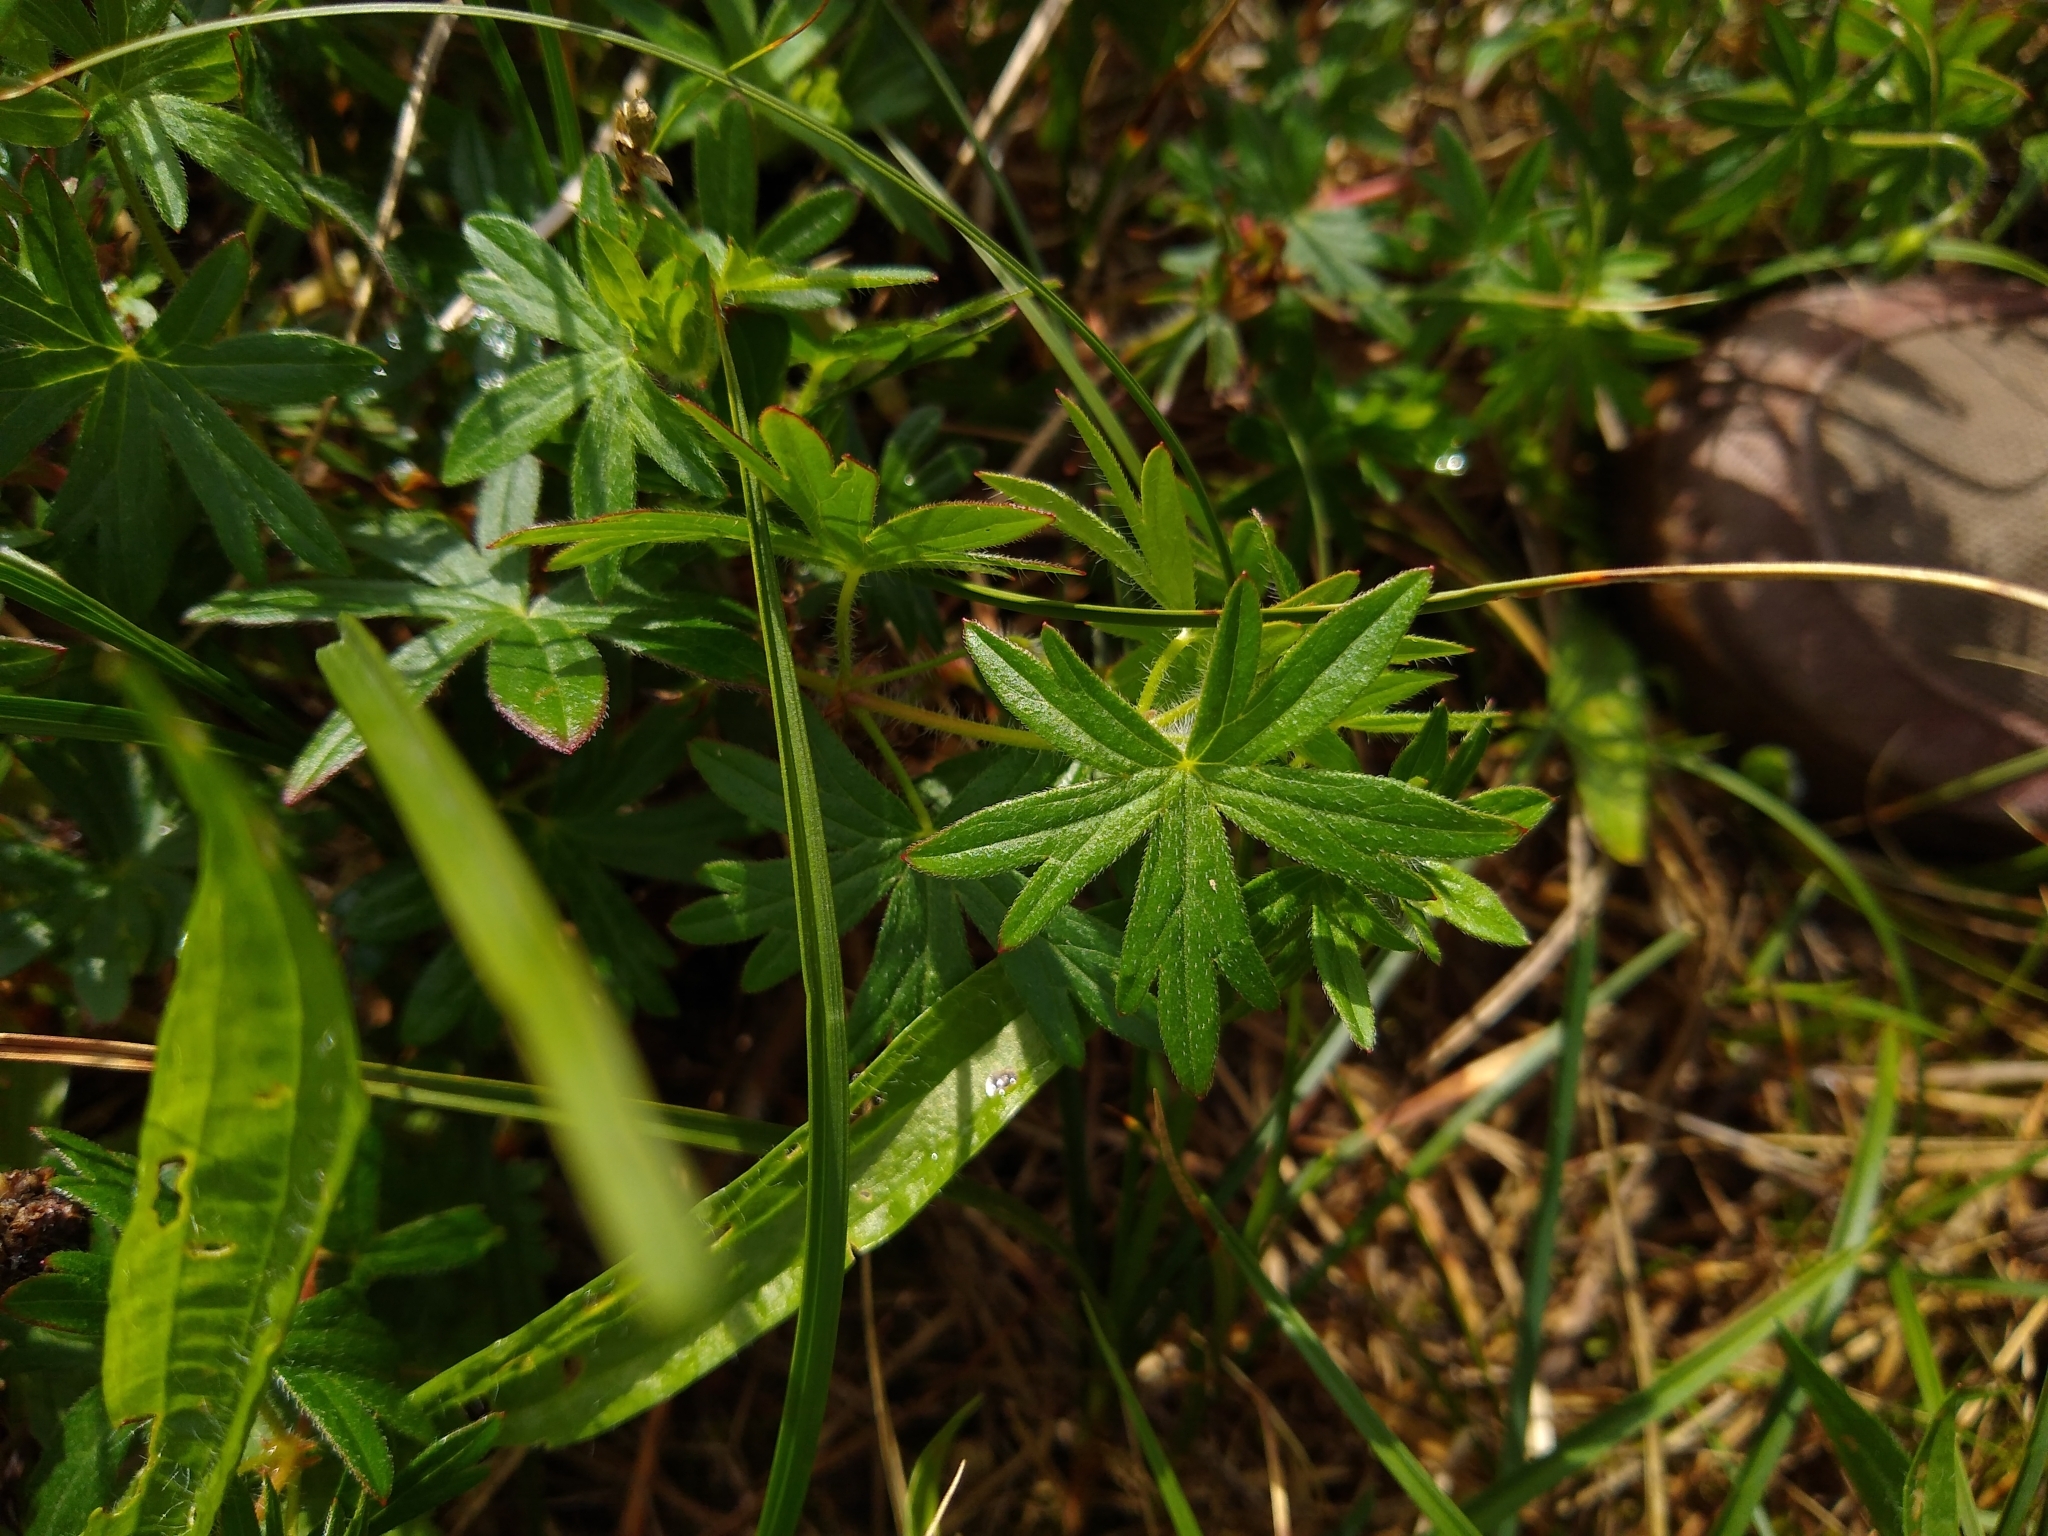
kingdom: Plantae
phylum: Tracheophyta
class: Magnoliopsida
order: Geraniales
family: Geraniaceae
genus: Geranium
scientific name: Geranium sanguineum
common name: Bloody crane's-bill
